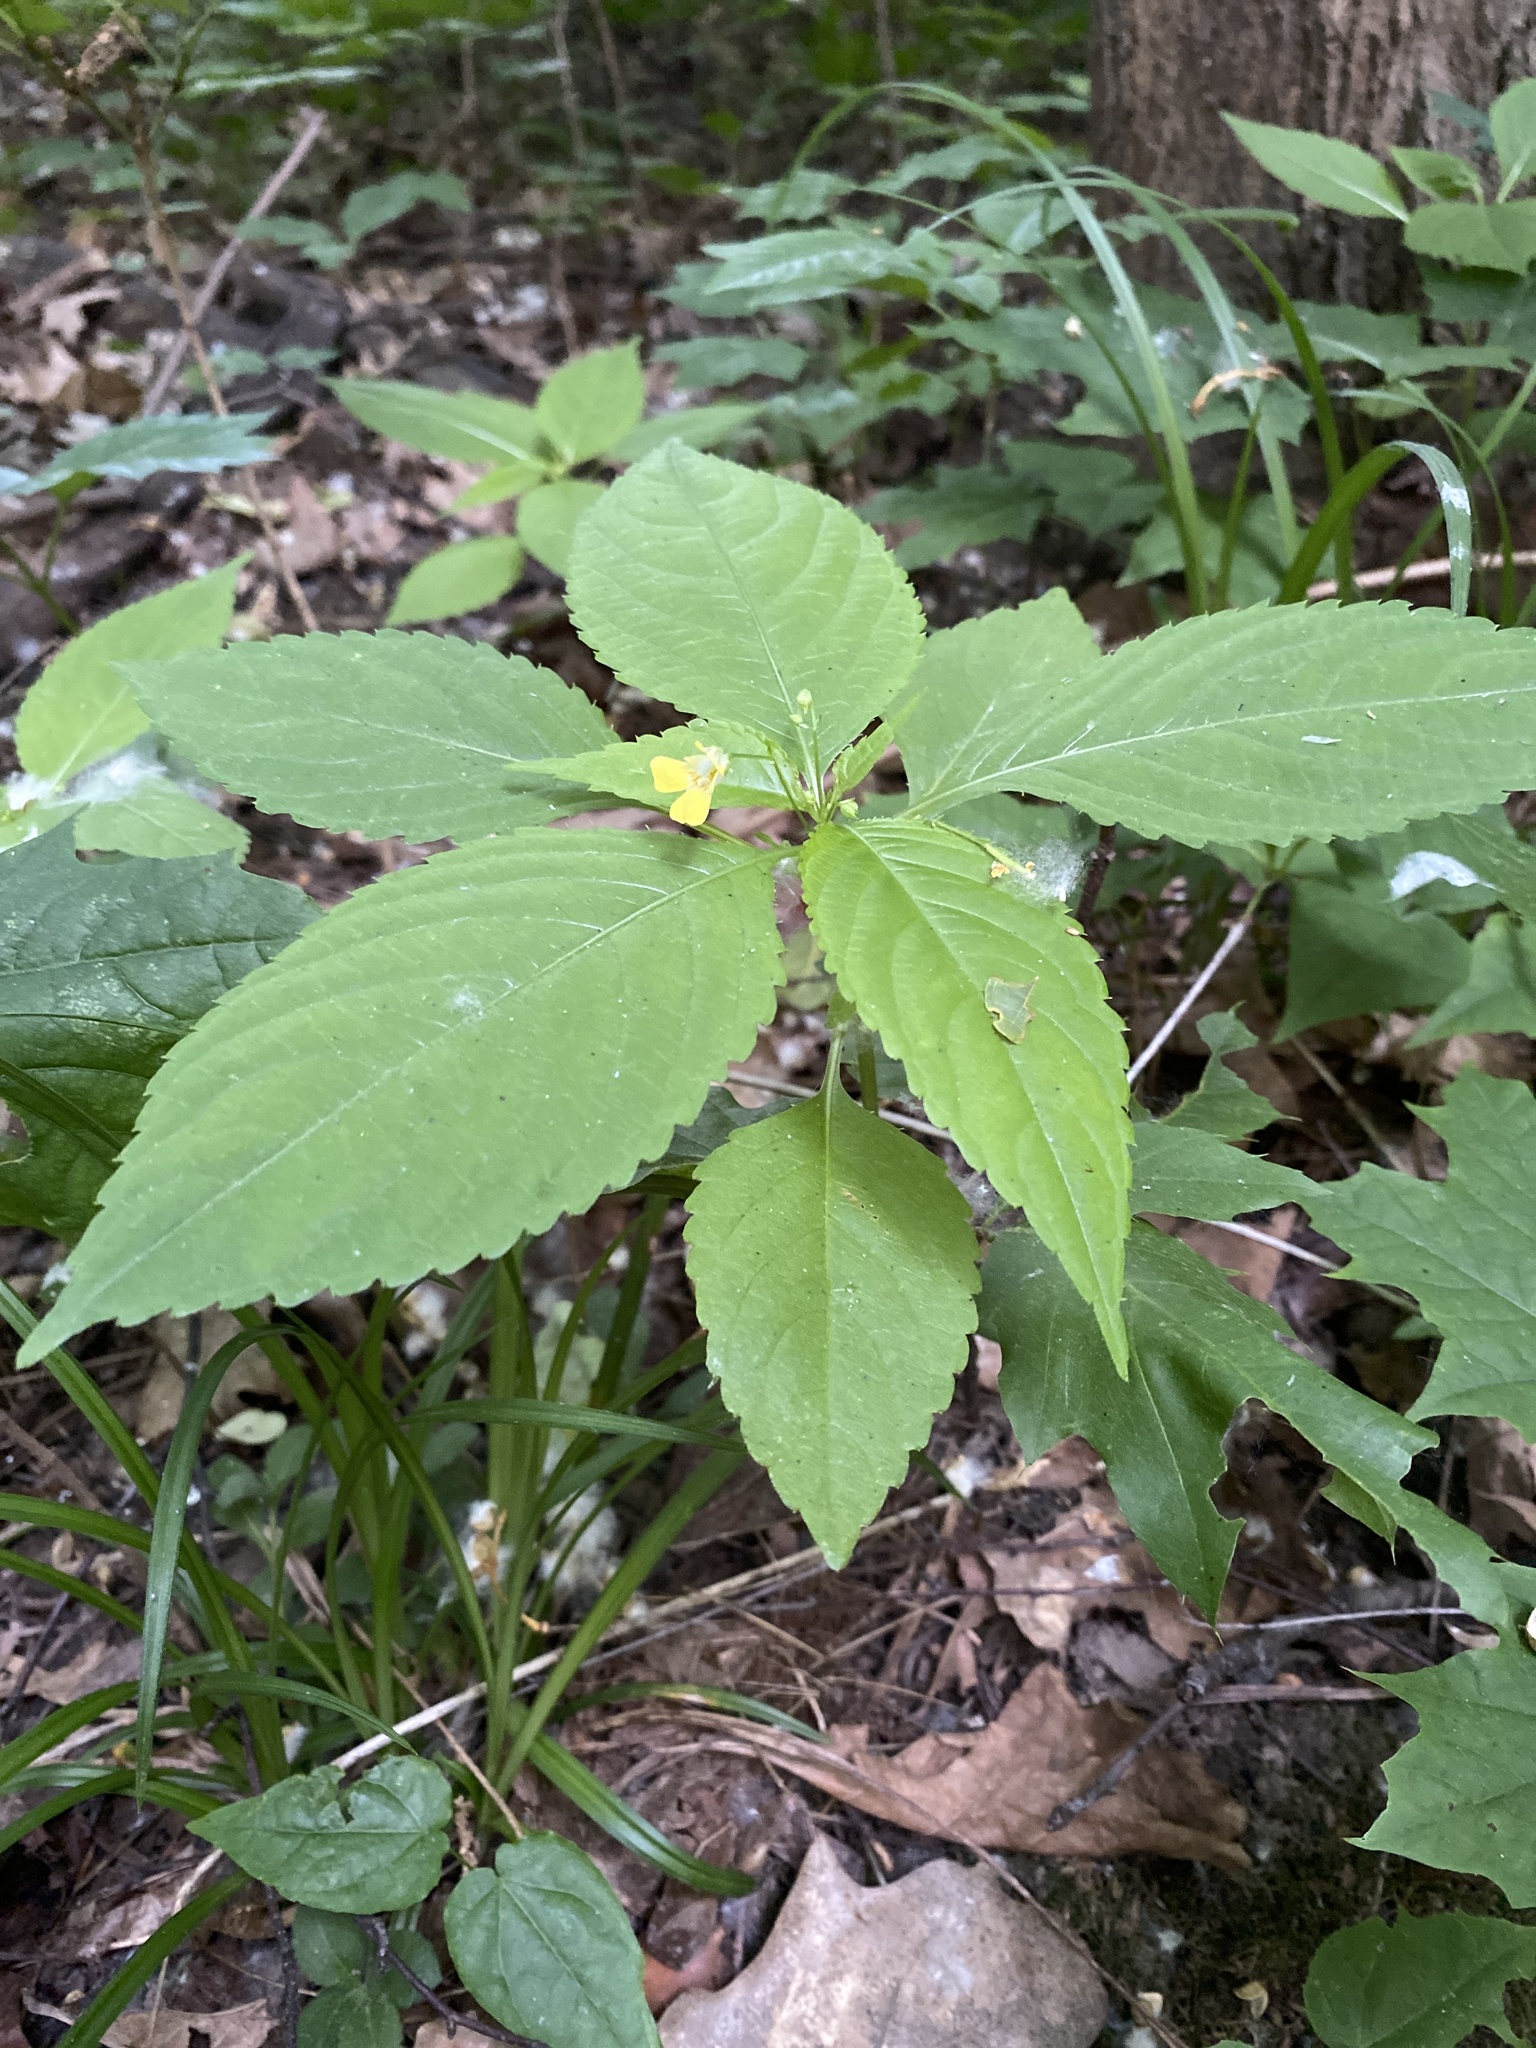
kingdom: Plantae
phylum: Tracheophyta
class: Magnoliopsida
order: Ericales
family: Balsaminaceae
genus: Impatiens
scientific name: Impatiens parviflora
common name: Small balsam
